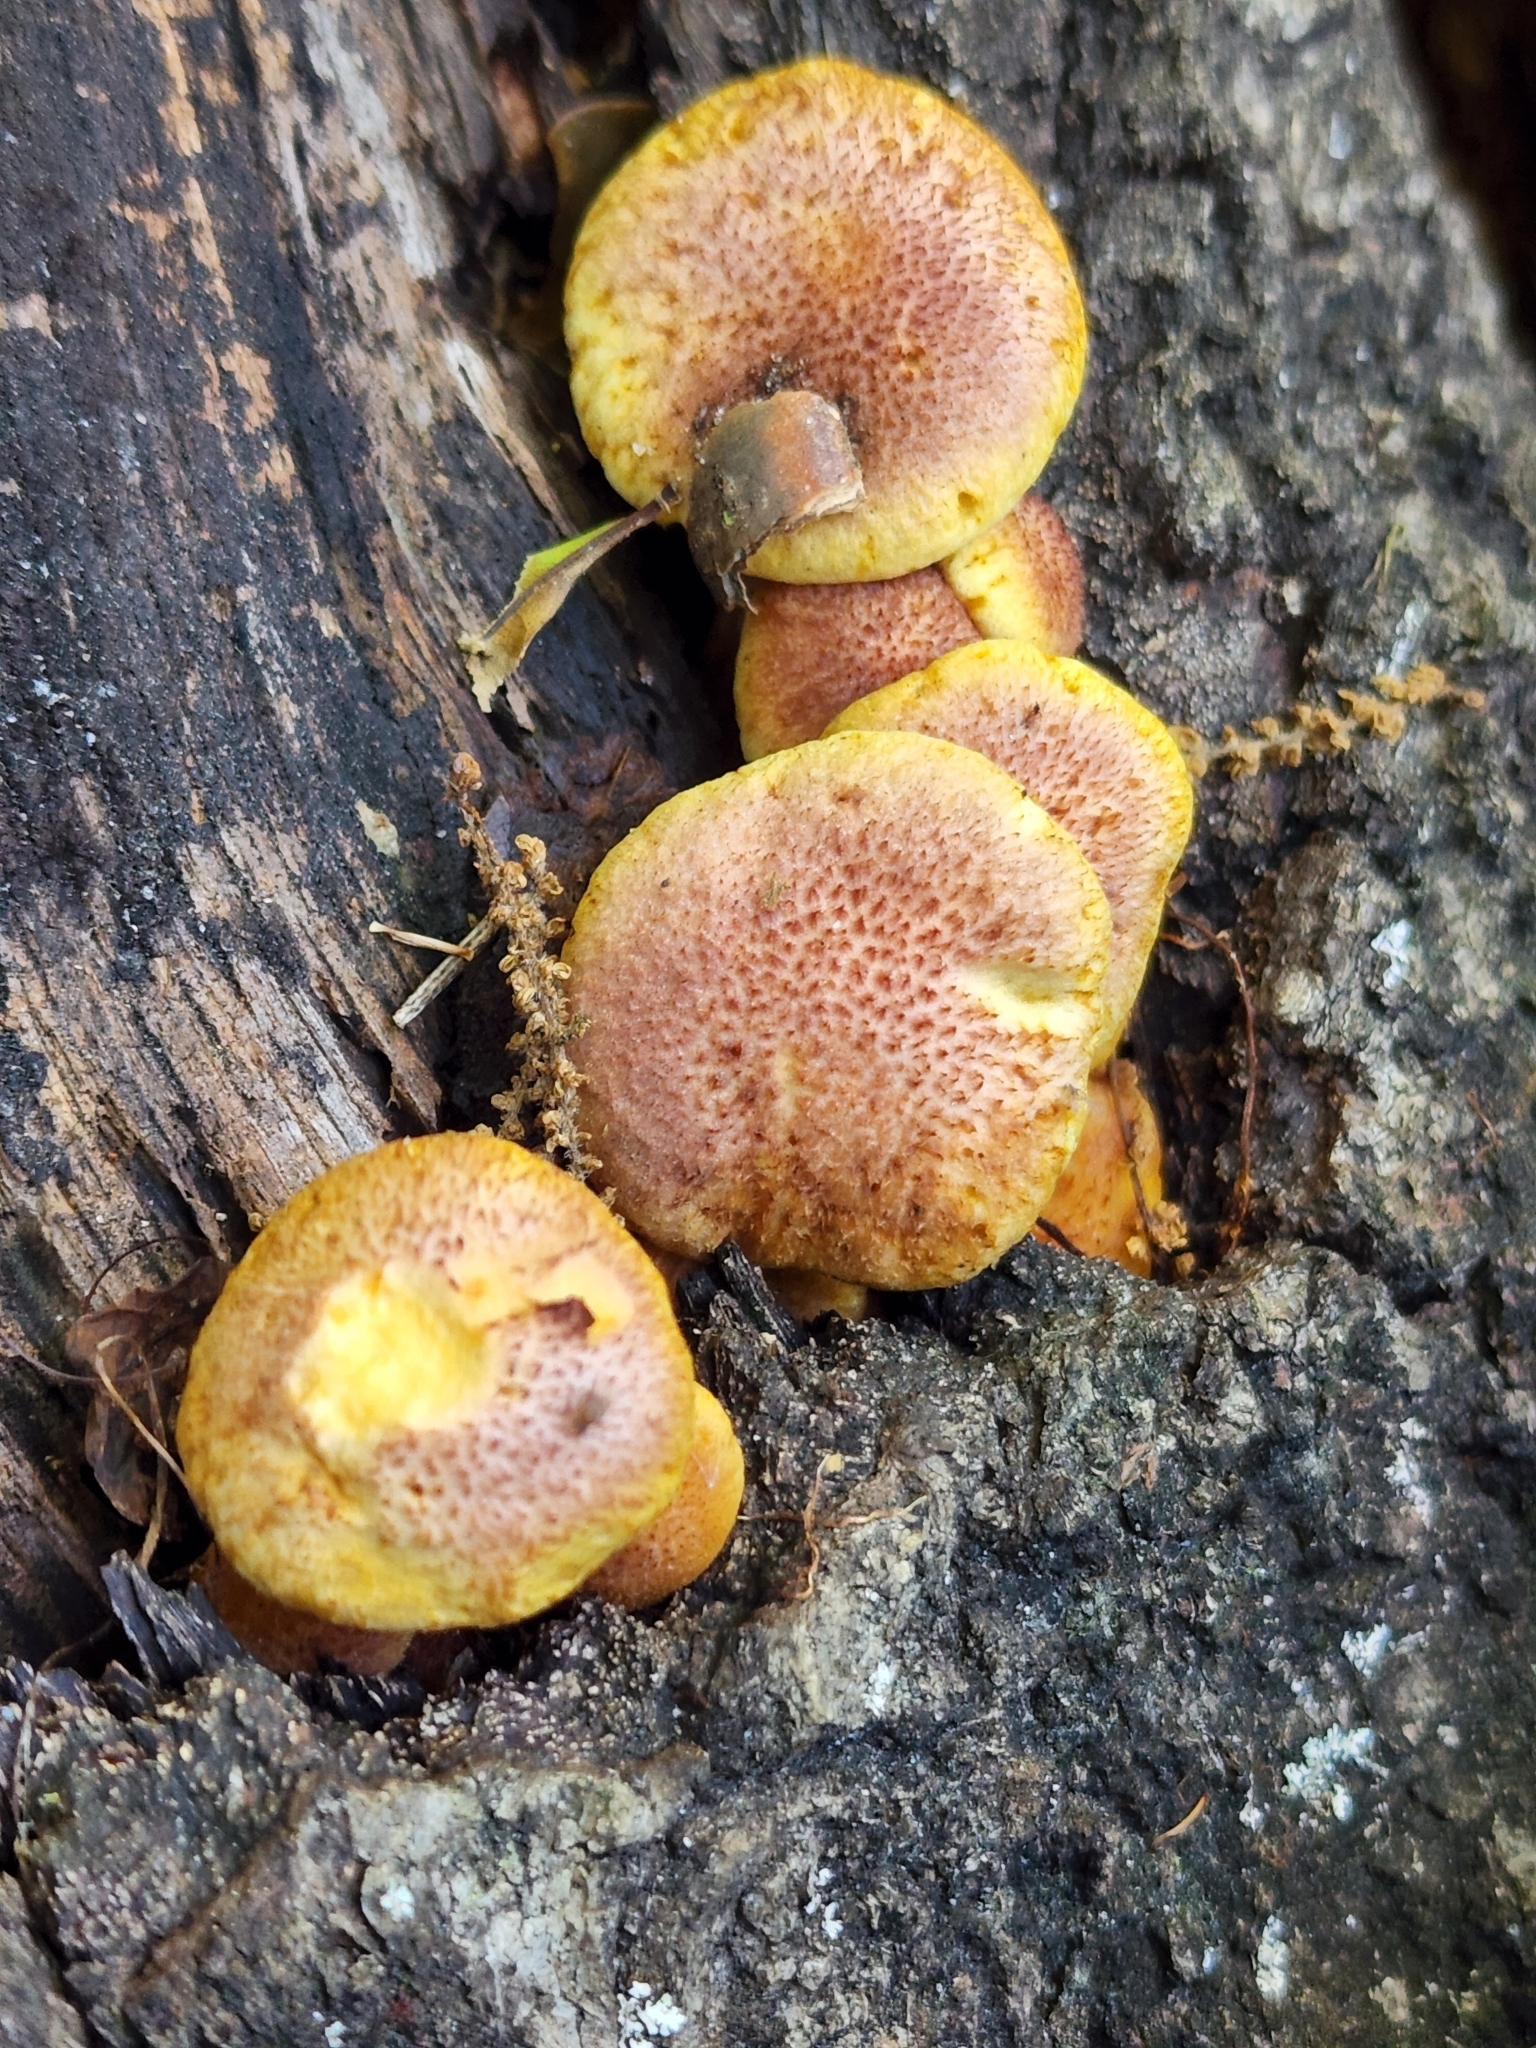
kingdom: Fungi
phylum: Basidiomycota
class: Agaricomycetes
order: Agaricales
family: Hymenogastraceae
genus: Gymnopilus
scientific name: Gymnopilus luteofolius
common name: Yellow-gilled gymnopilus
